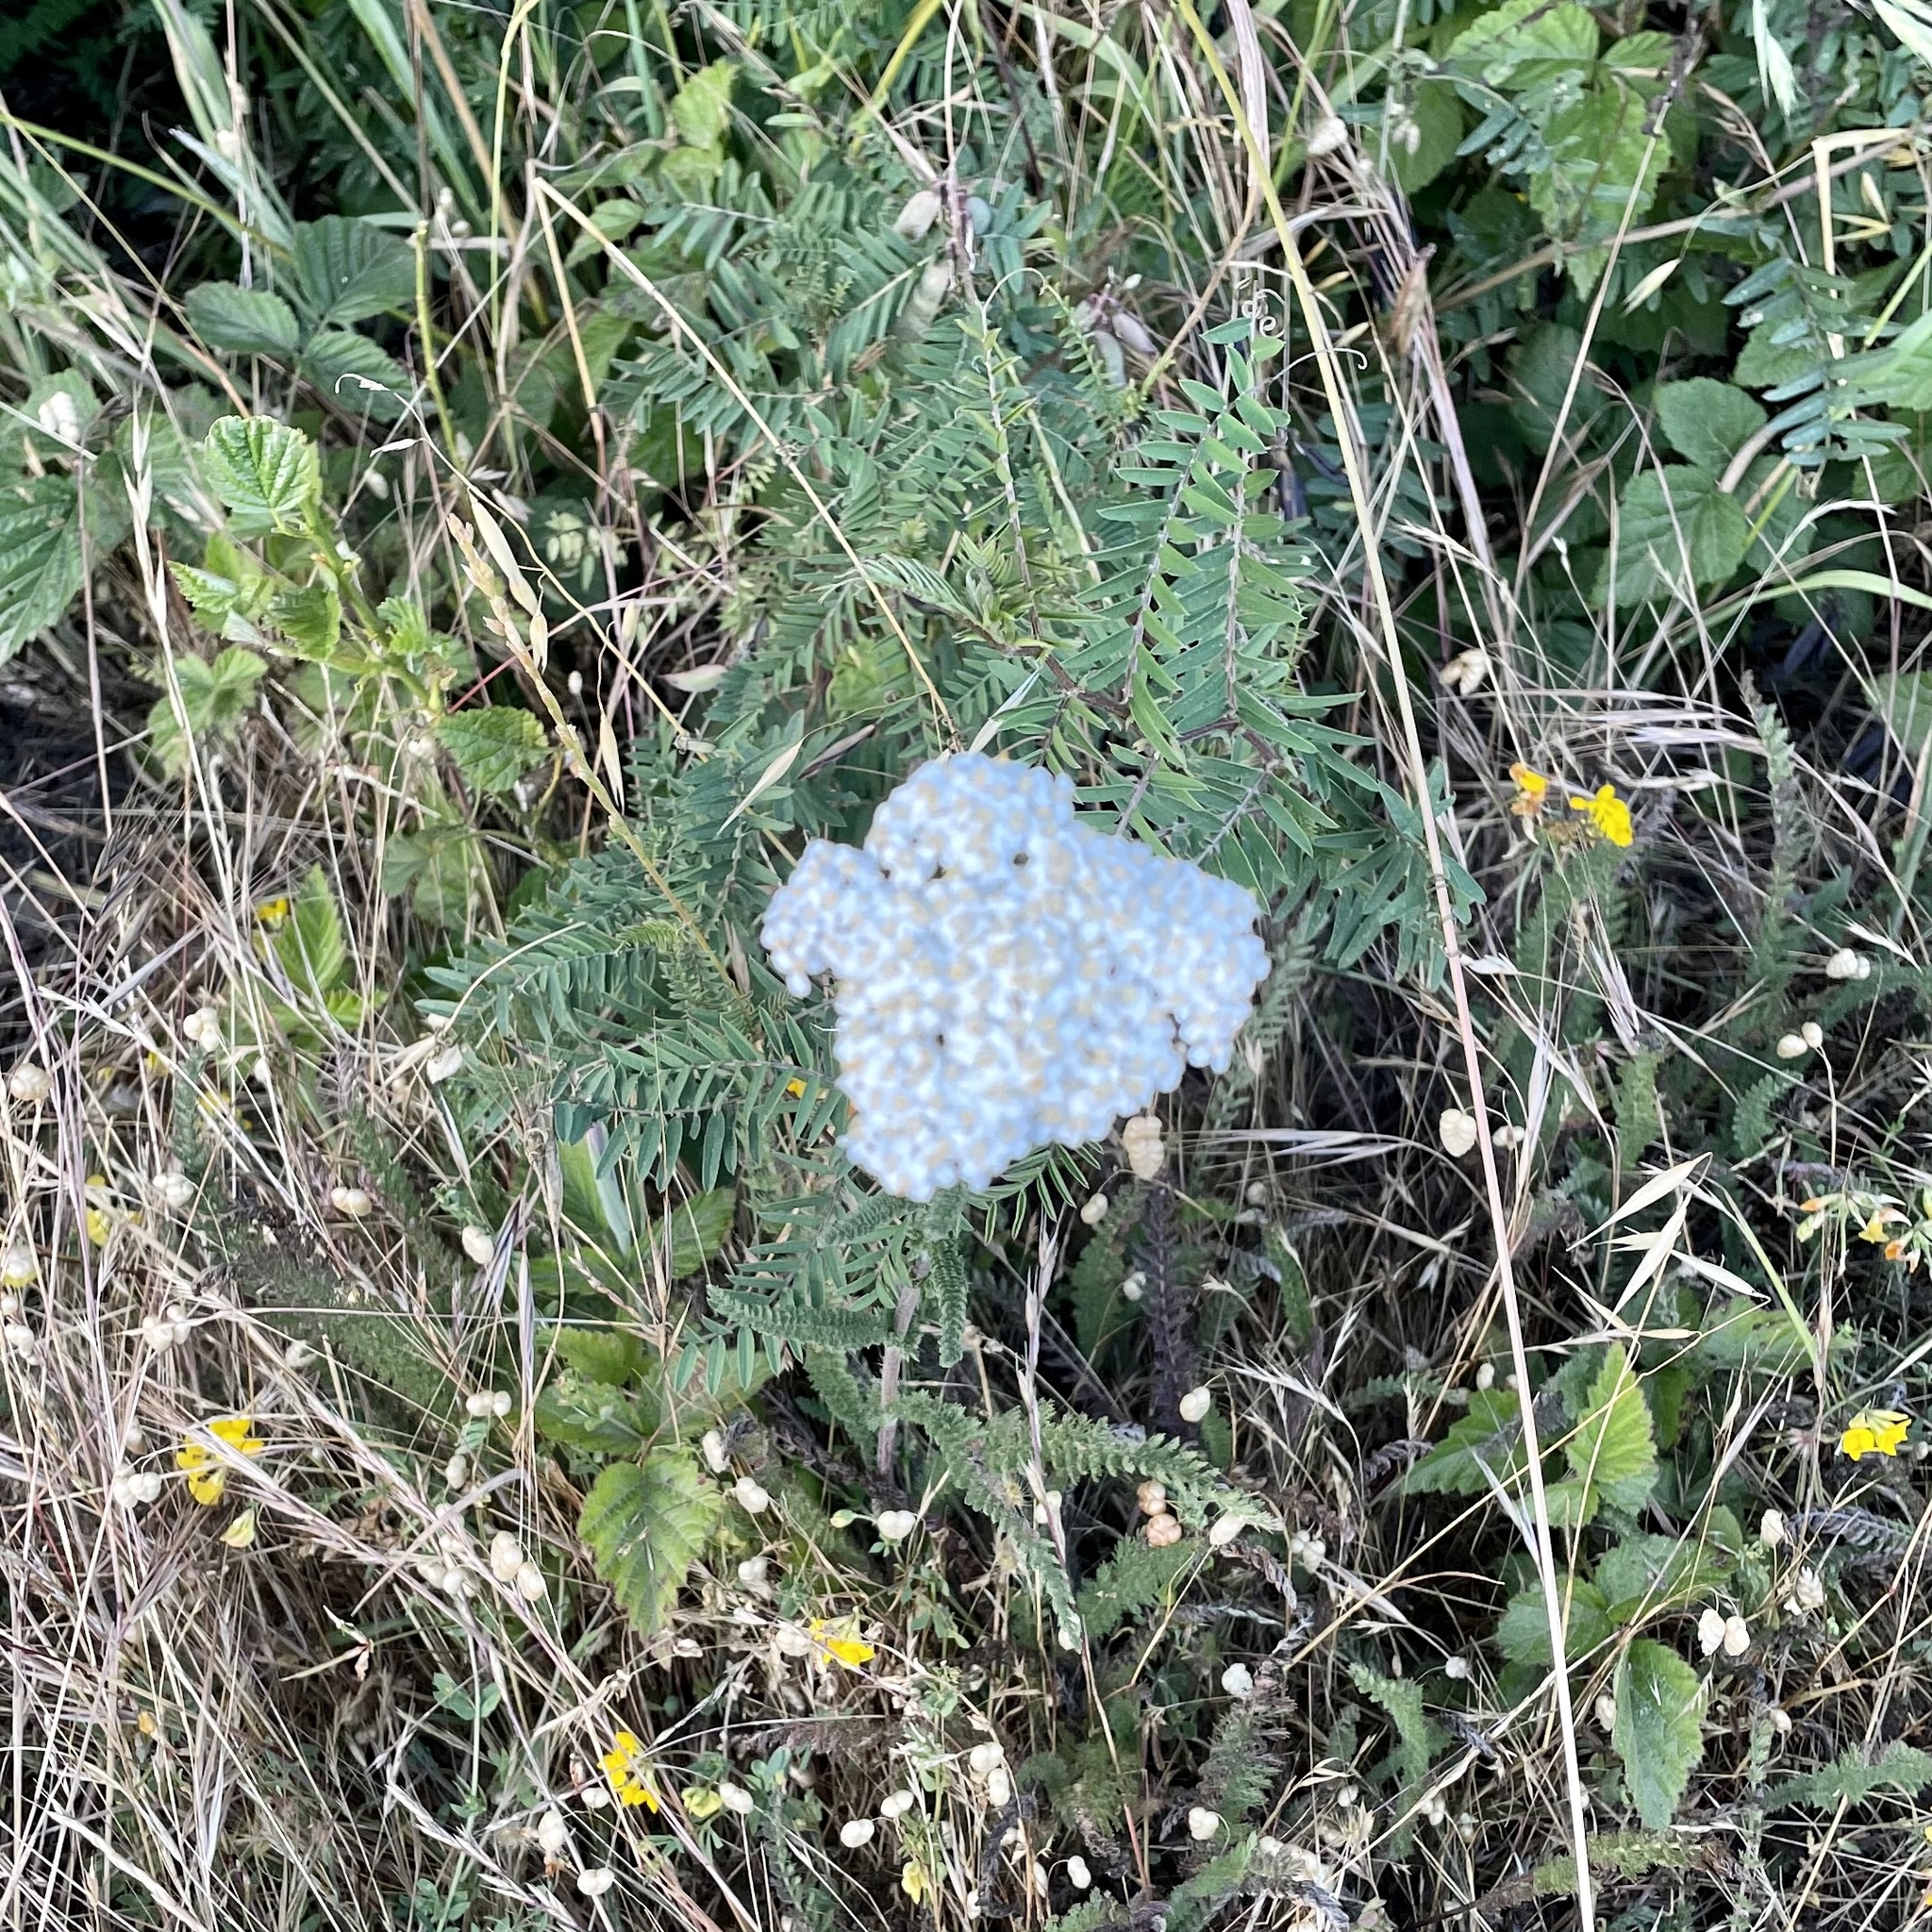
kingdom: Plantae
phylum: Tracheophyta
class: Magnoliopsida
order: Asterales
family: Asteraceae
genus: Achillea
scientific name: Achillea millefolium
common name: Yarrow
